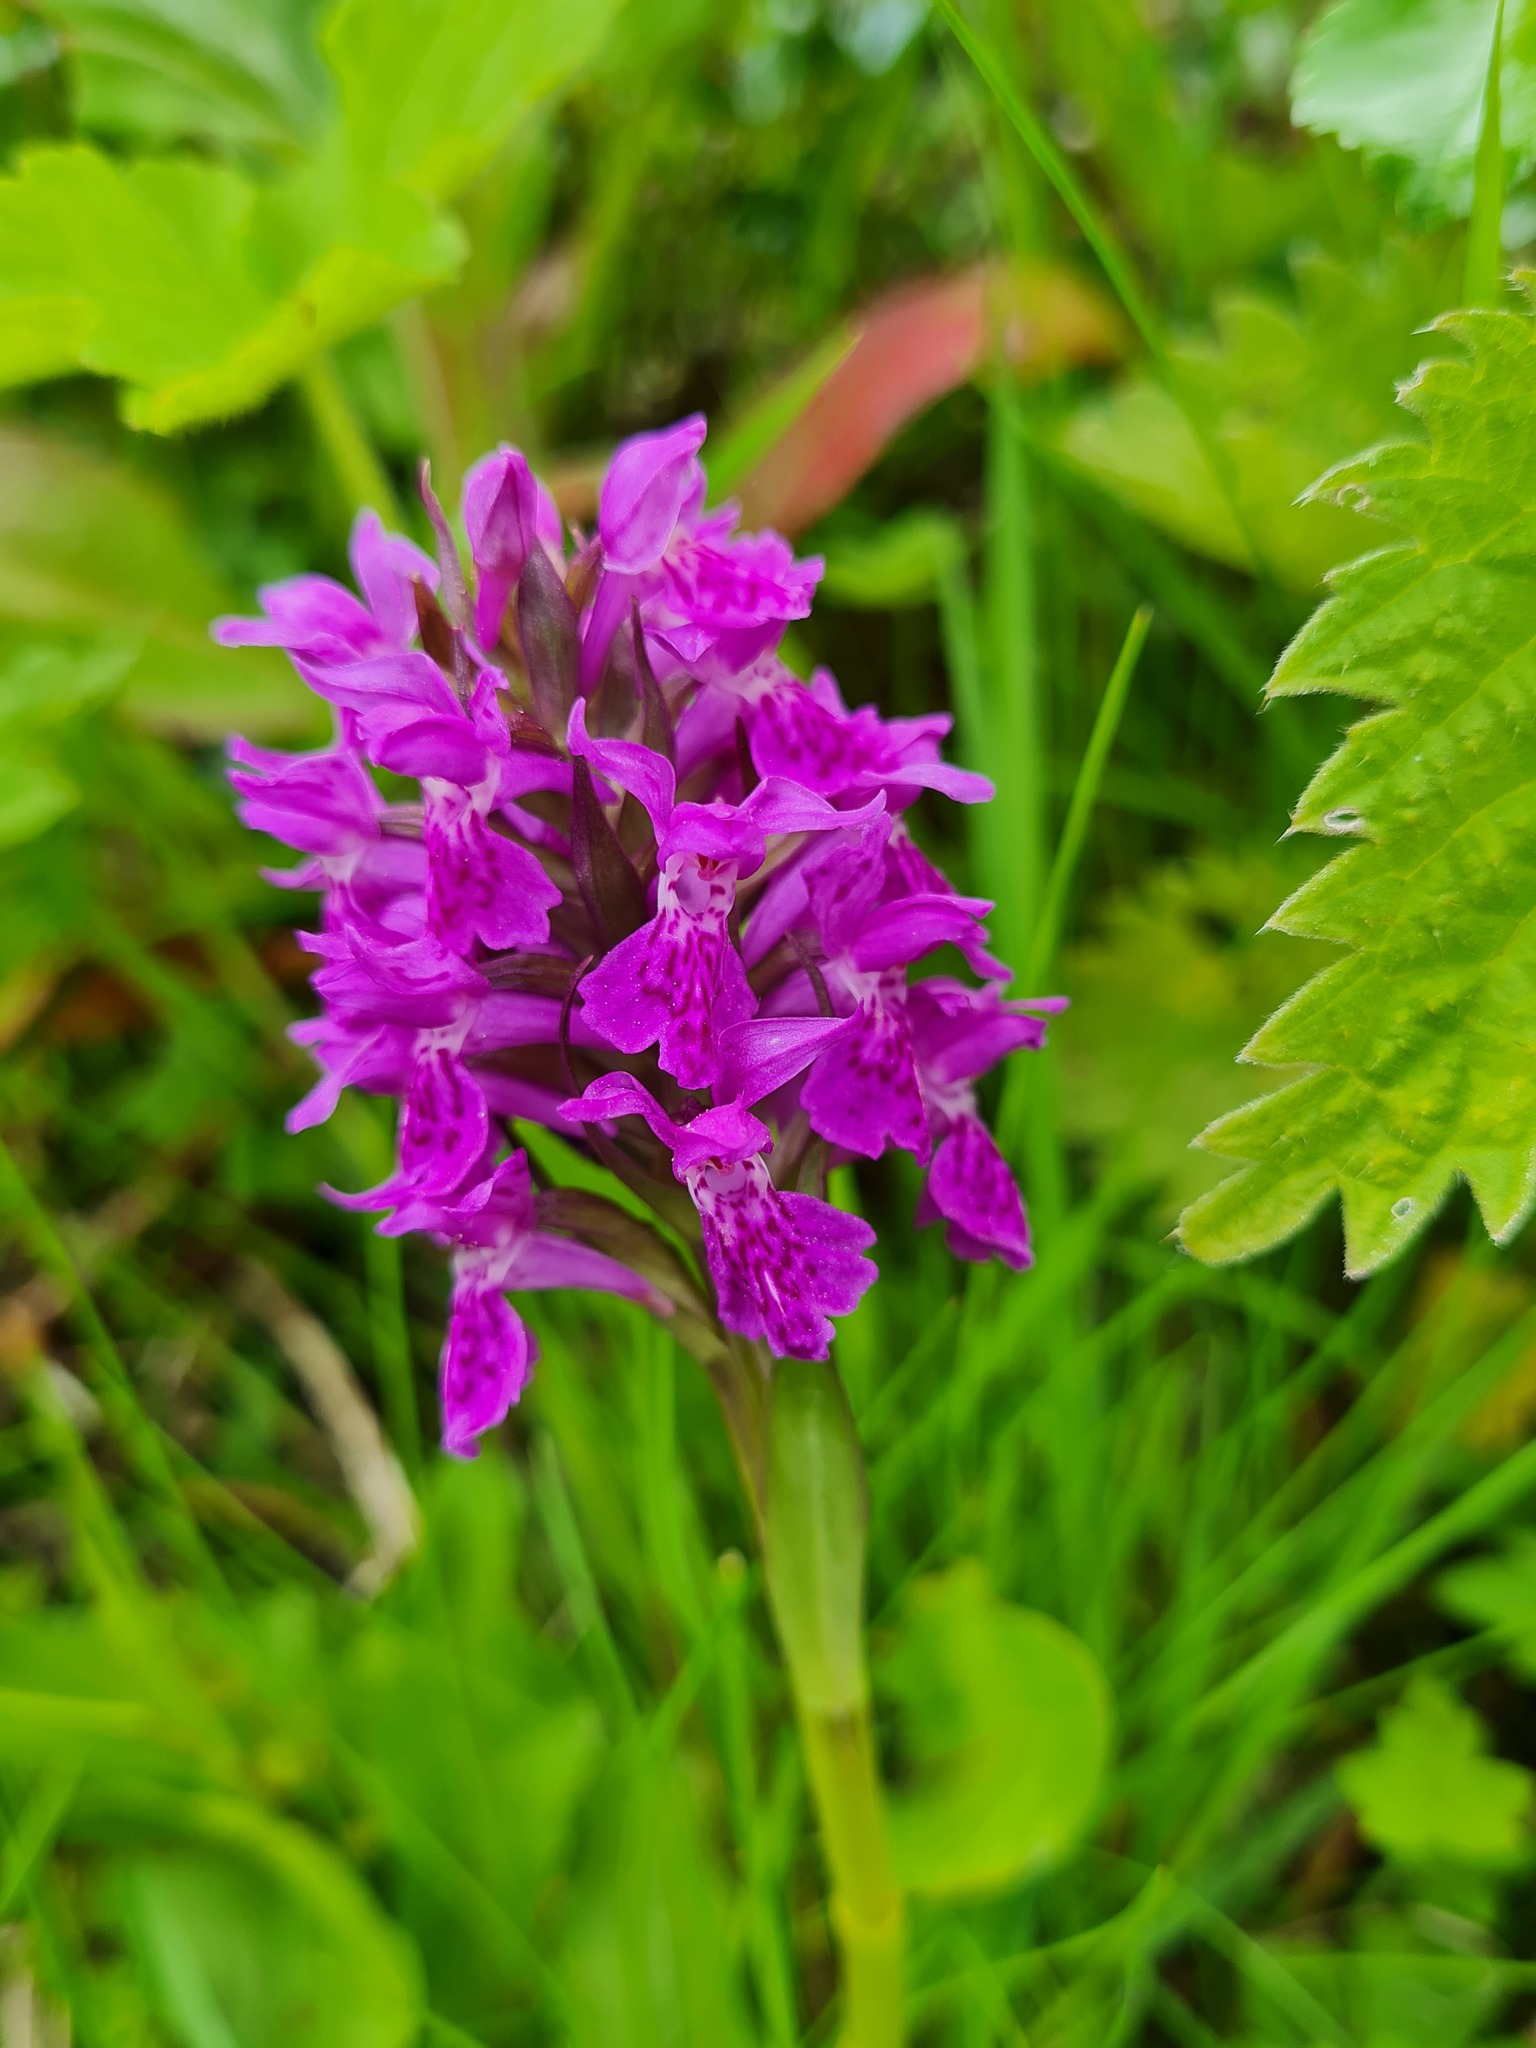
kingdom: Plantae
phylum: Tracheophyta
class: Liliopsida
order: Asparagales
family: Orchidaceae
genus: Dactylorhiza
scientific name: Dactylorhiza majalis
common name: Marsh orchid
